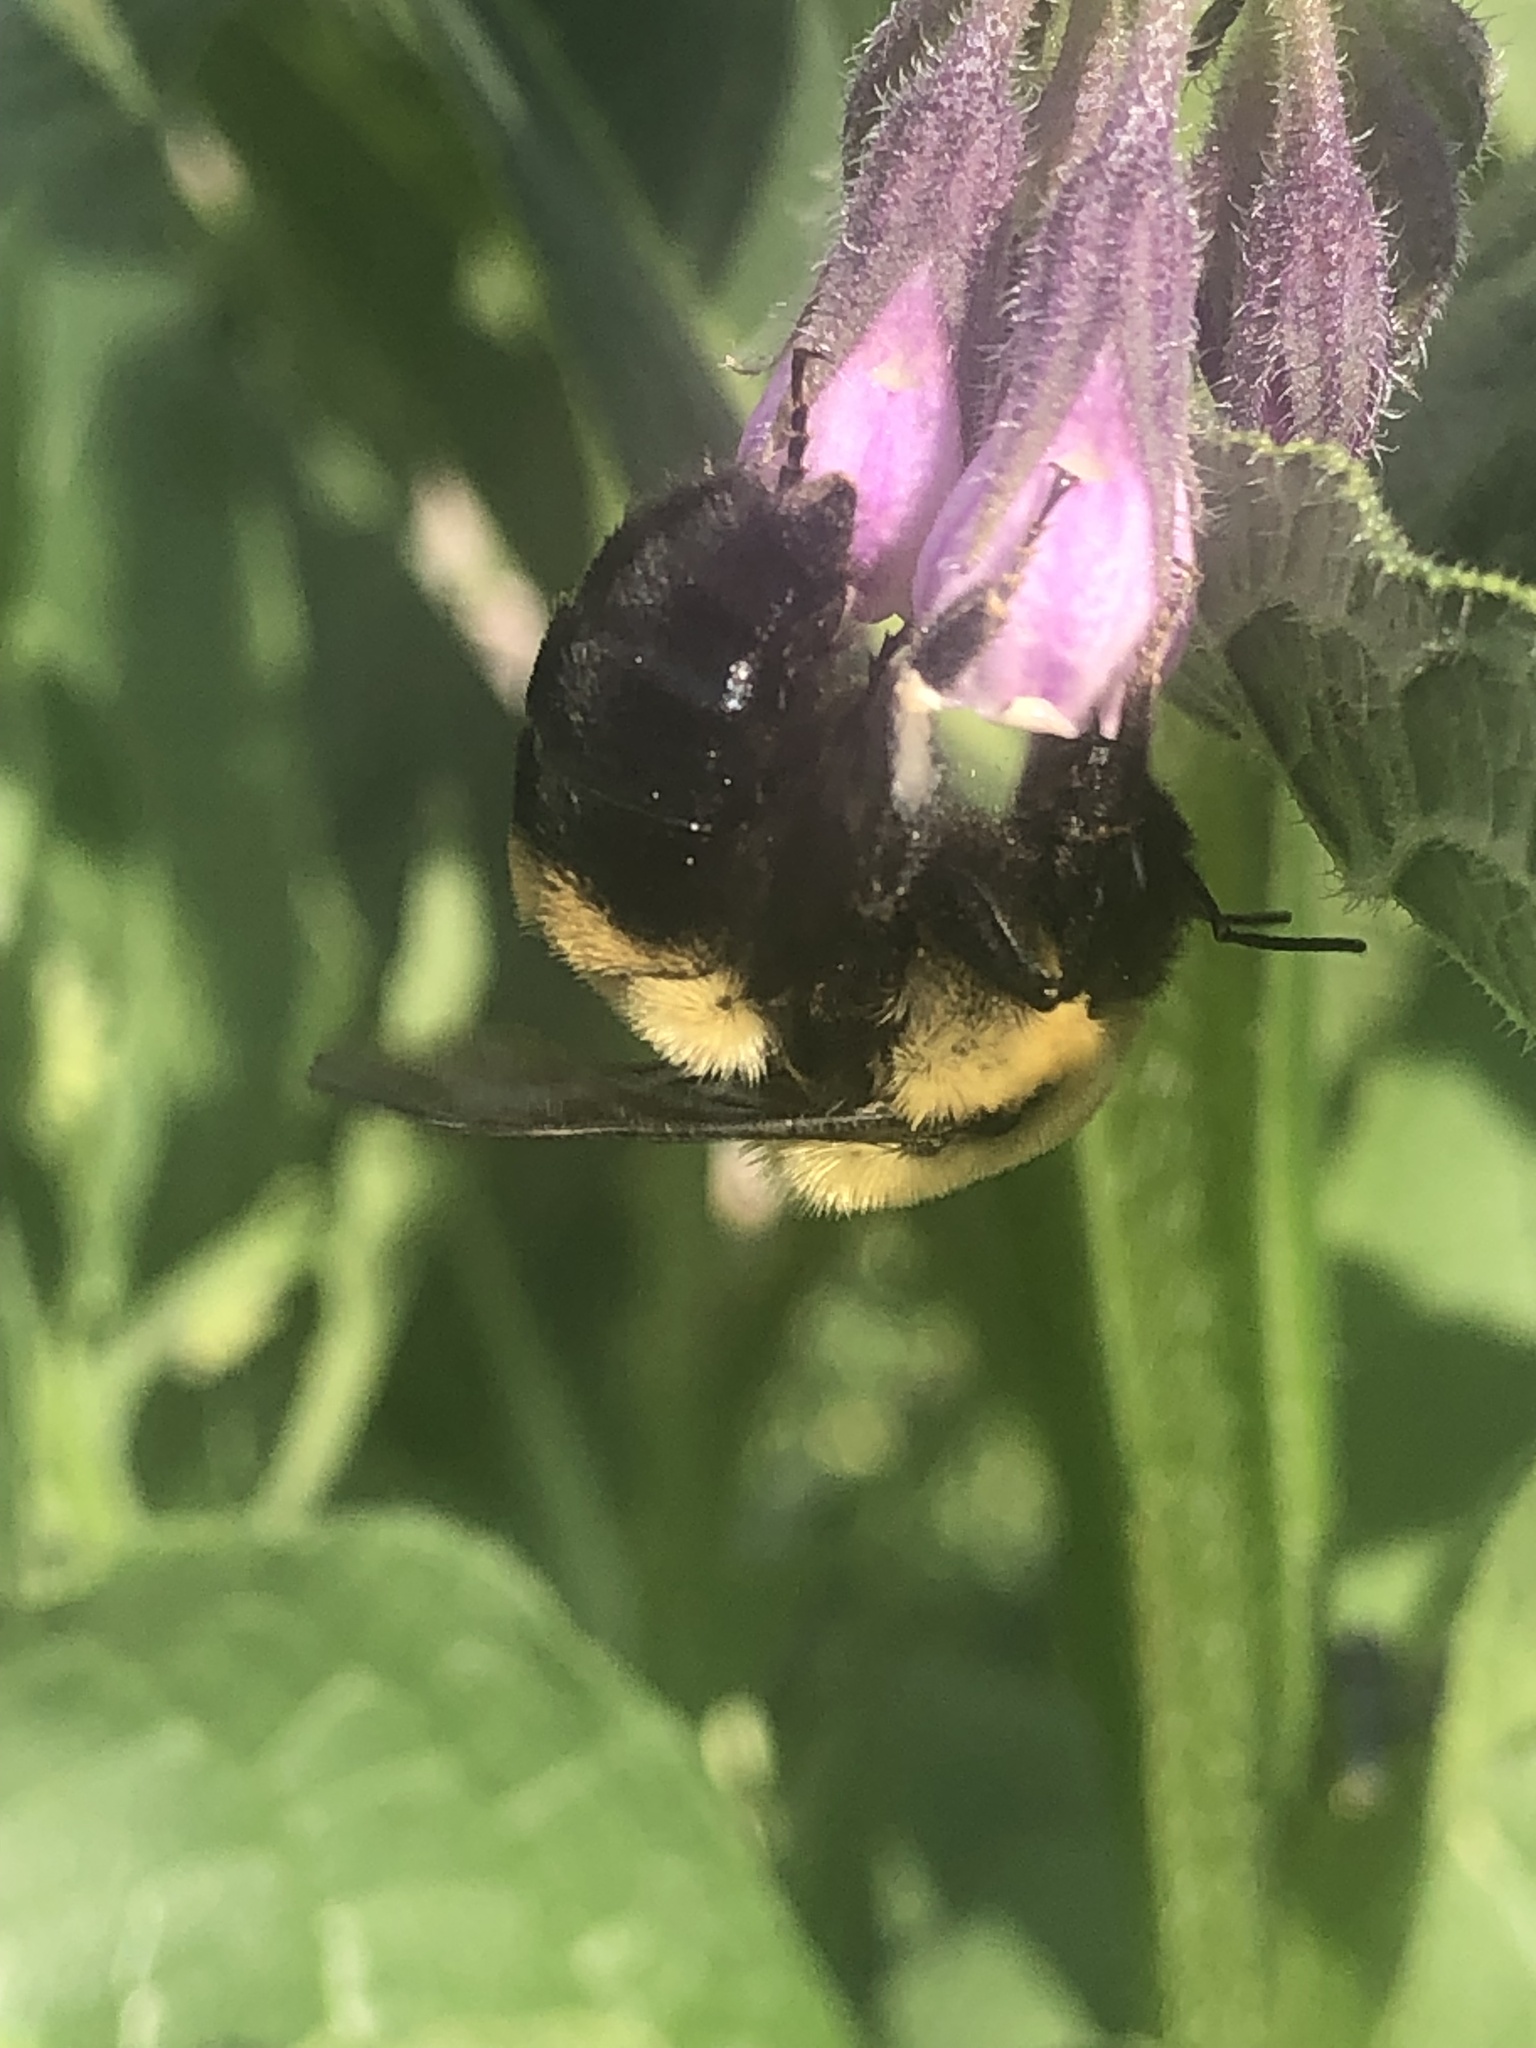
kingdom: Animalia
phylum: Arthropoda
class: Insecta
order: Hymenoptera
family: Apidae
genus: Bombus
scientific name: Bombus griseocollis
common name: Brown-belted bumble bee
